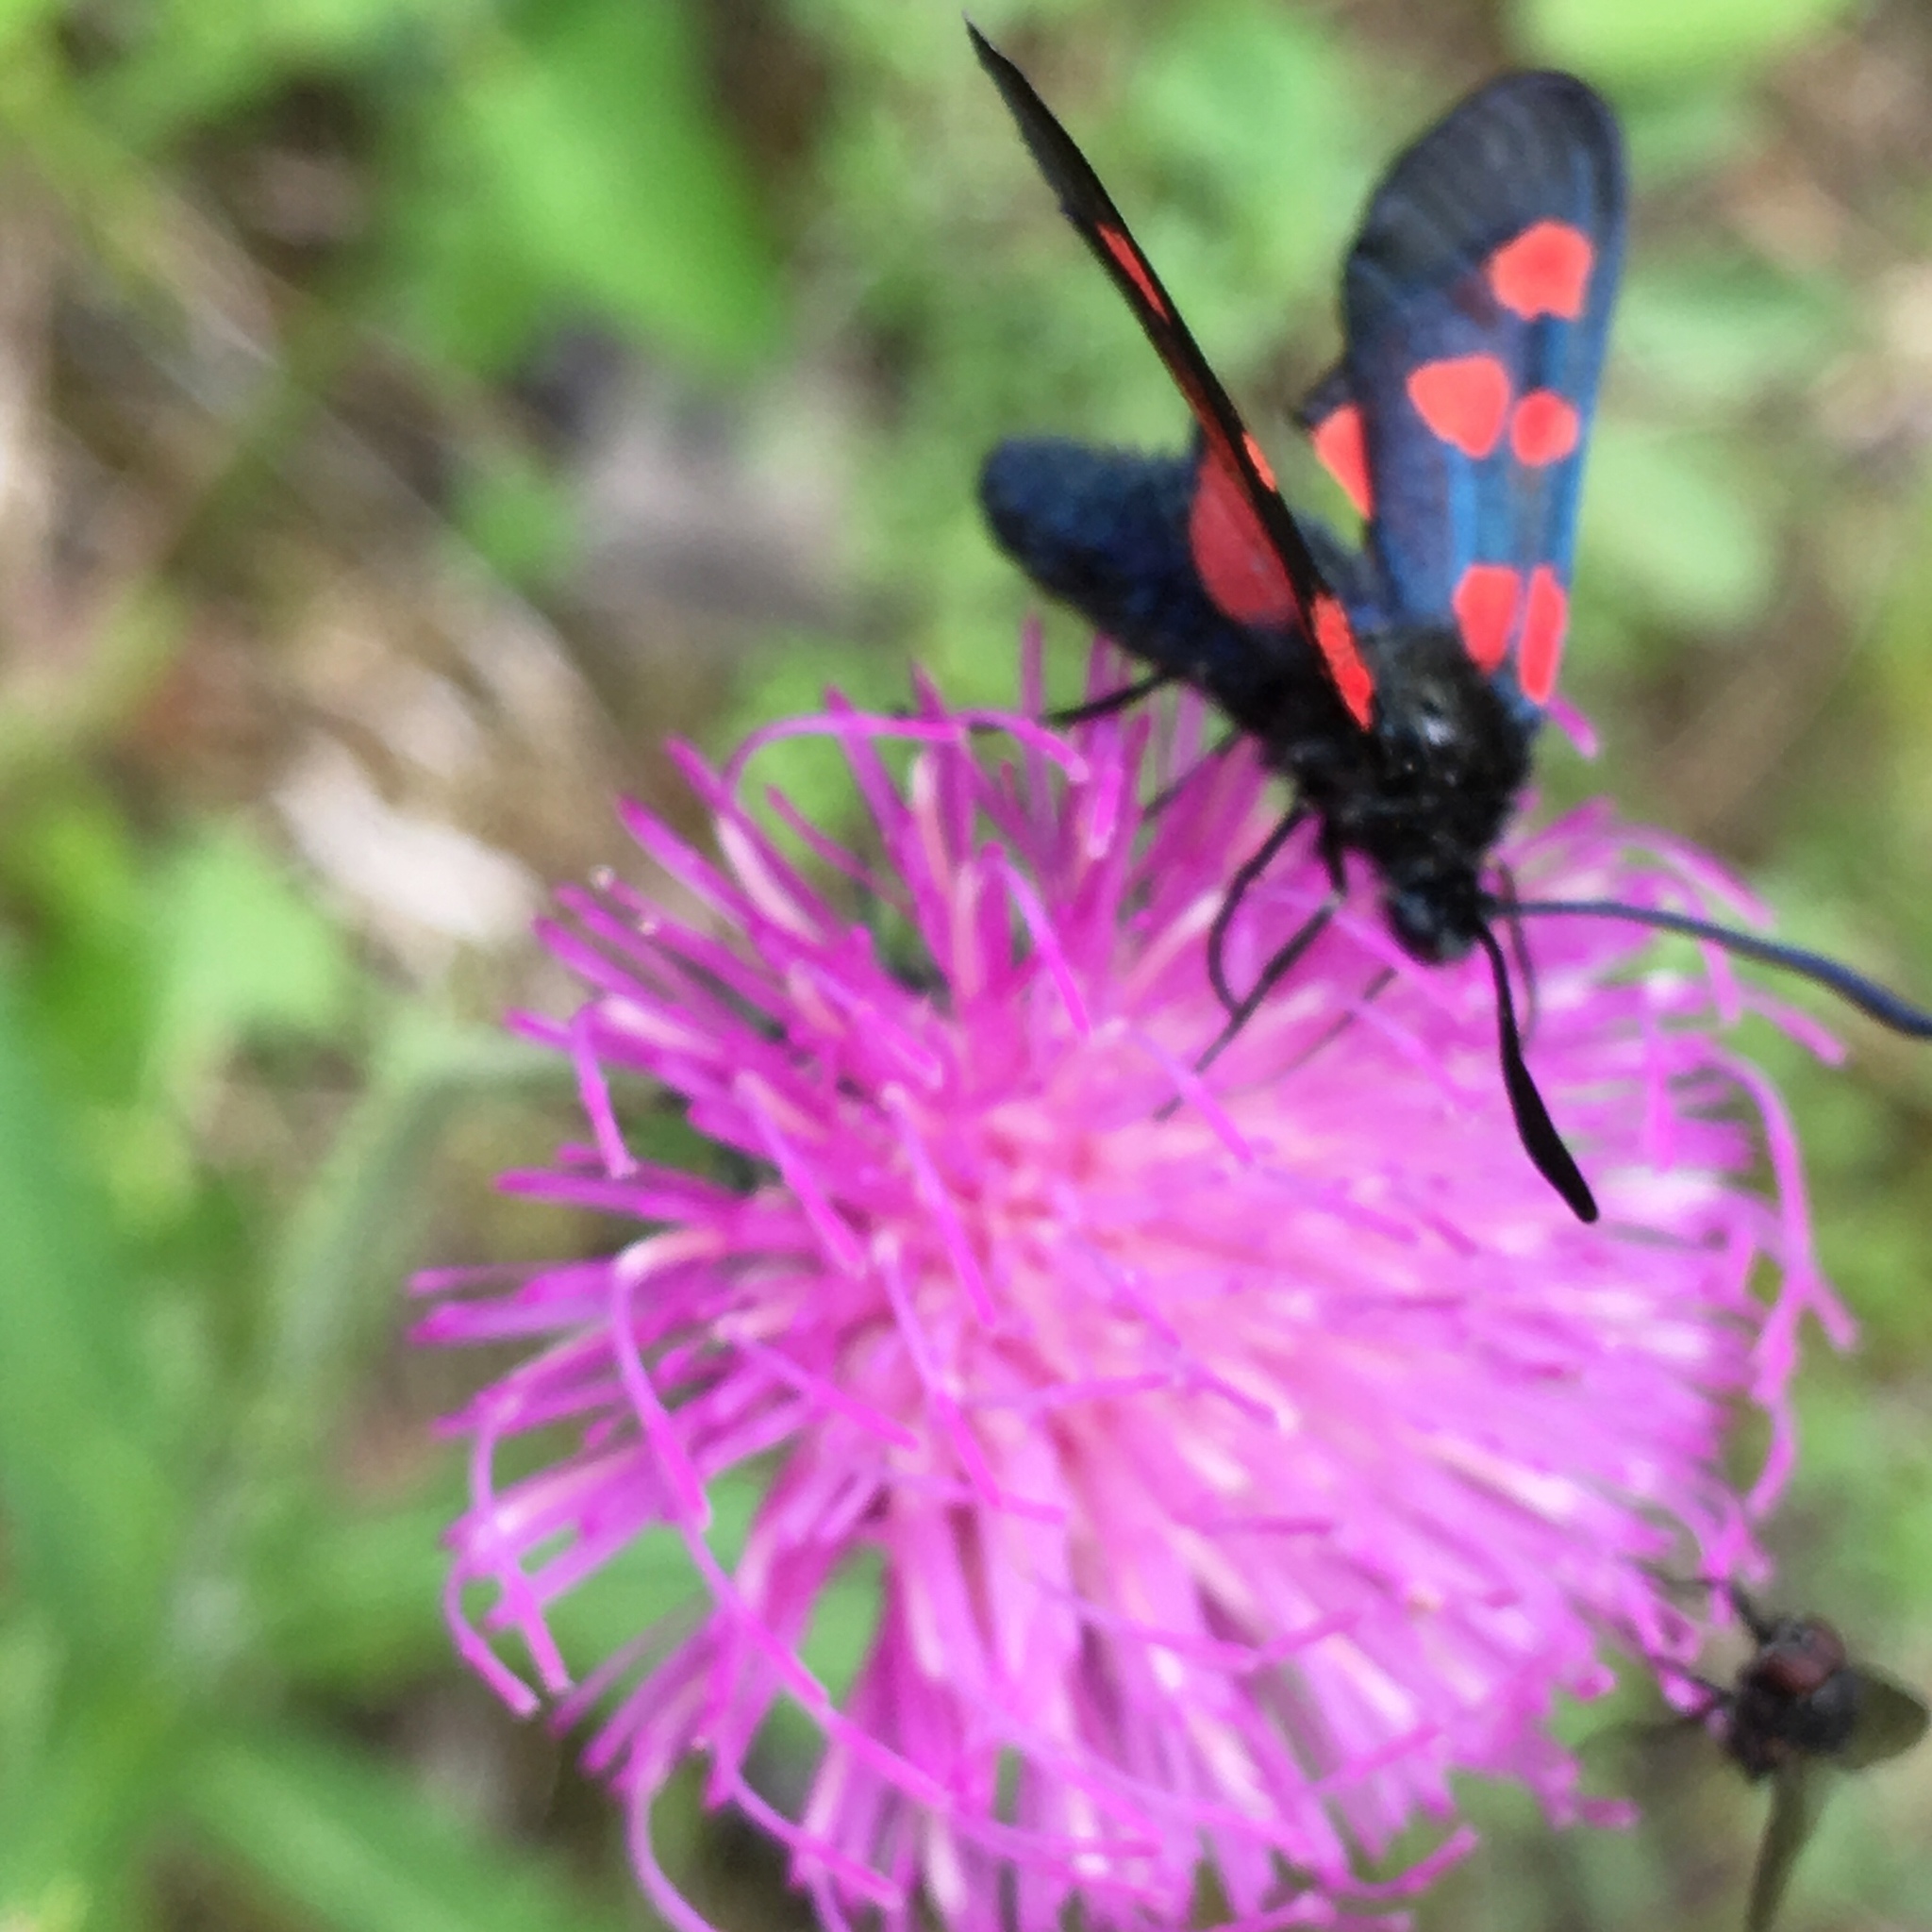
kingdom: Animalia
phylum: Arthropoda
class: Insecta
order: Lepidoptera
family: Zygaenidae
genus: Zygaena
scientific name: Zygaena lonicerae
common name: Narrow-bordered five-spot burnet
